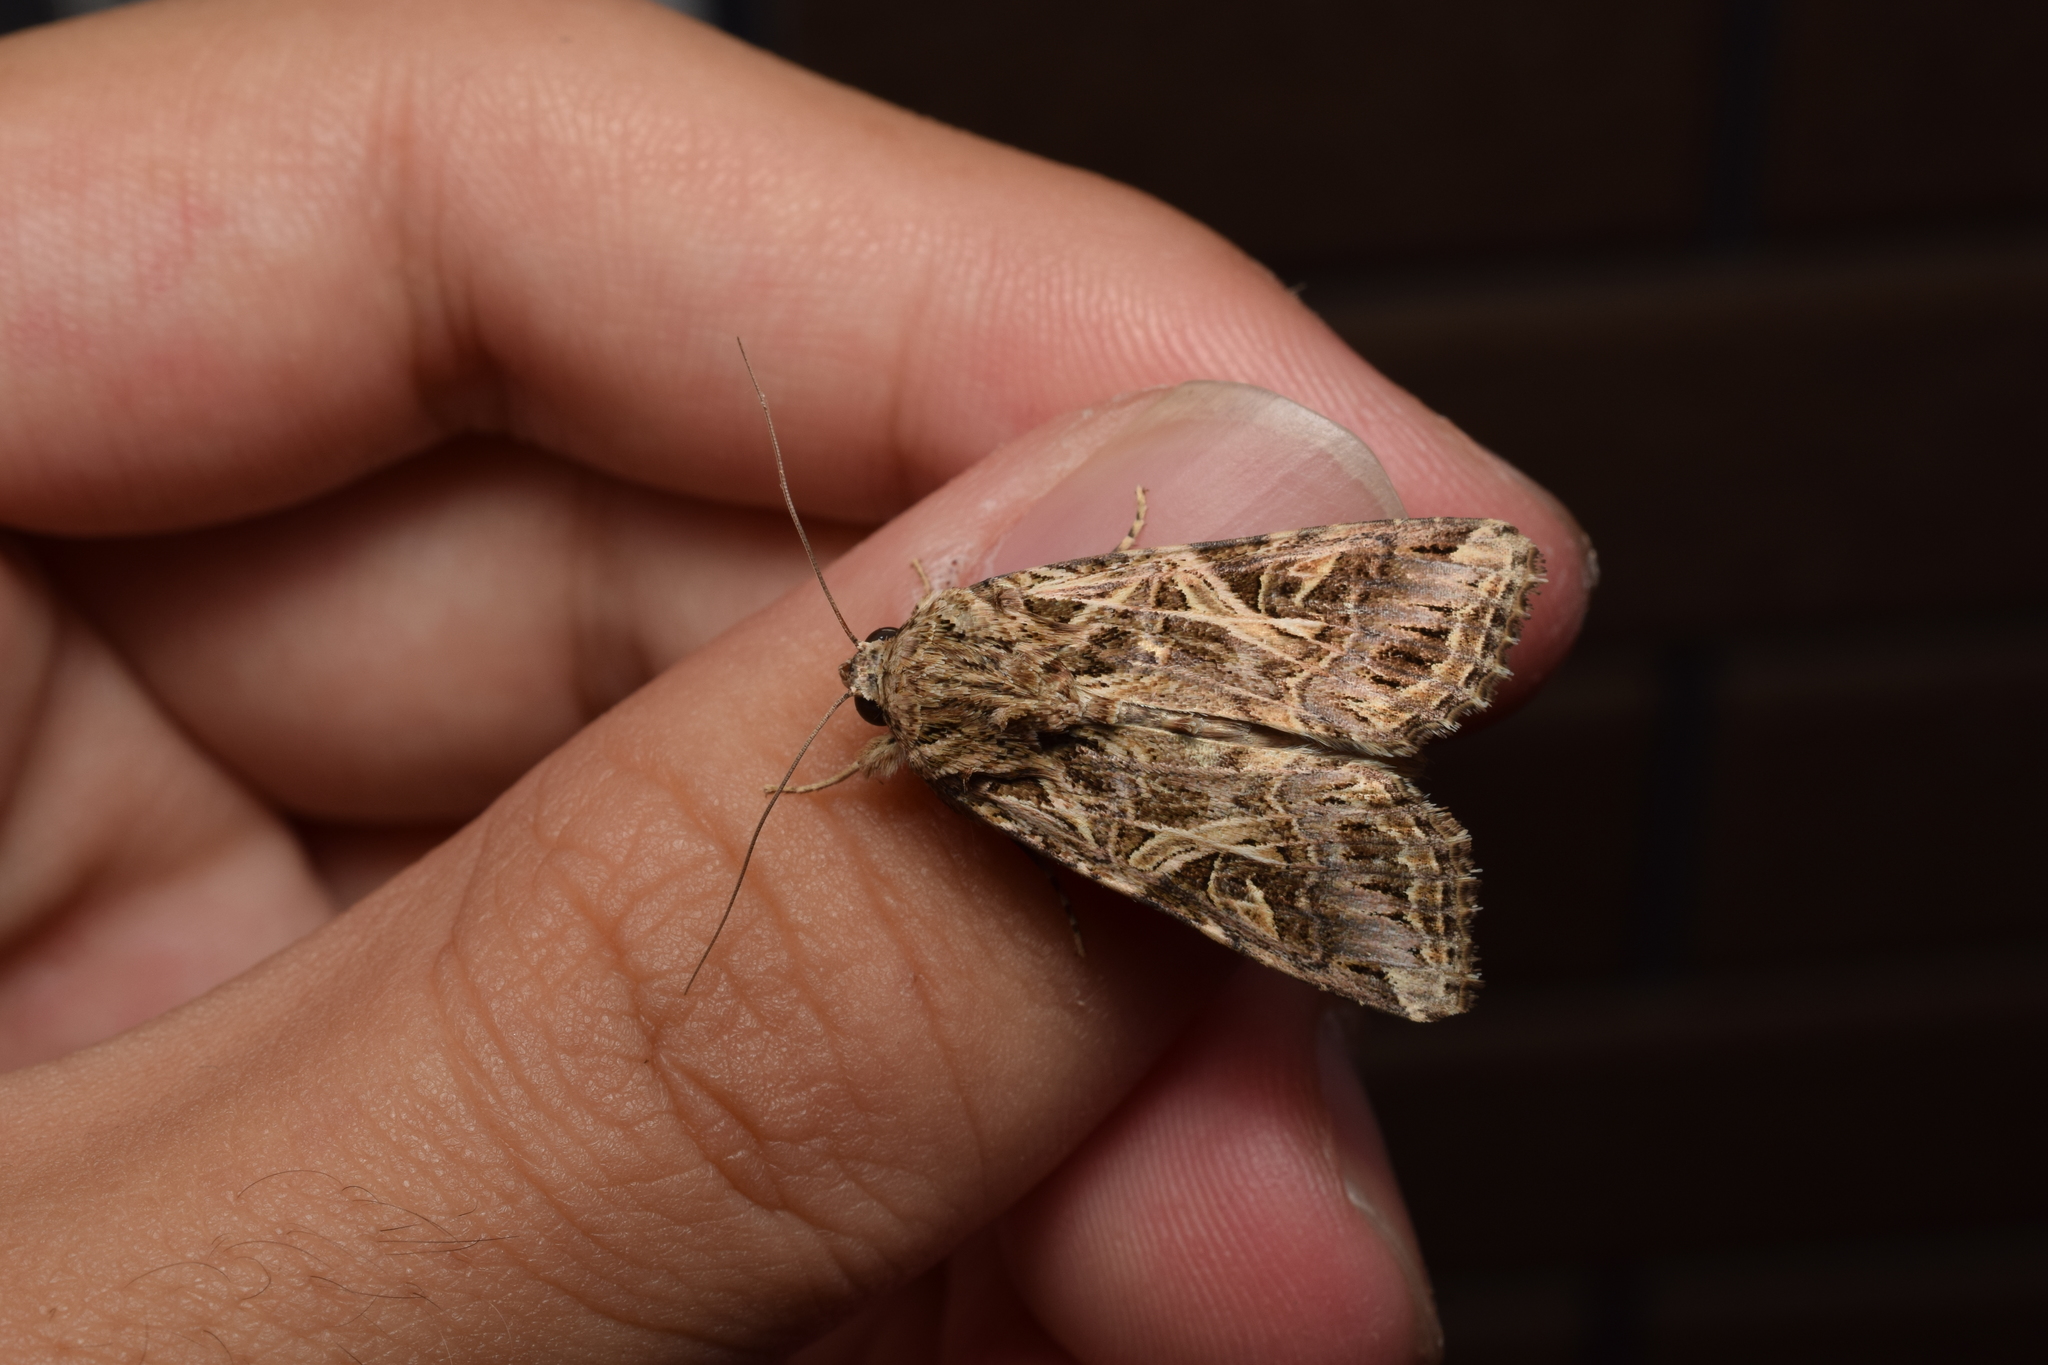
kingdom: Animalia
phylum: Arthropoda
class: Insecta
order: Lepidoptera
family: Noctuidae
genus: Spodoptera
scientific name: Spodoptera litura
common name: Asian cotton leafworm
